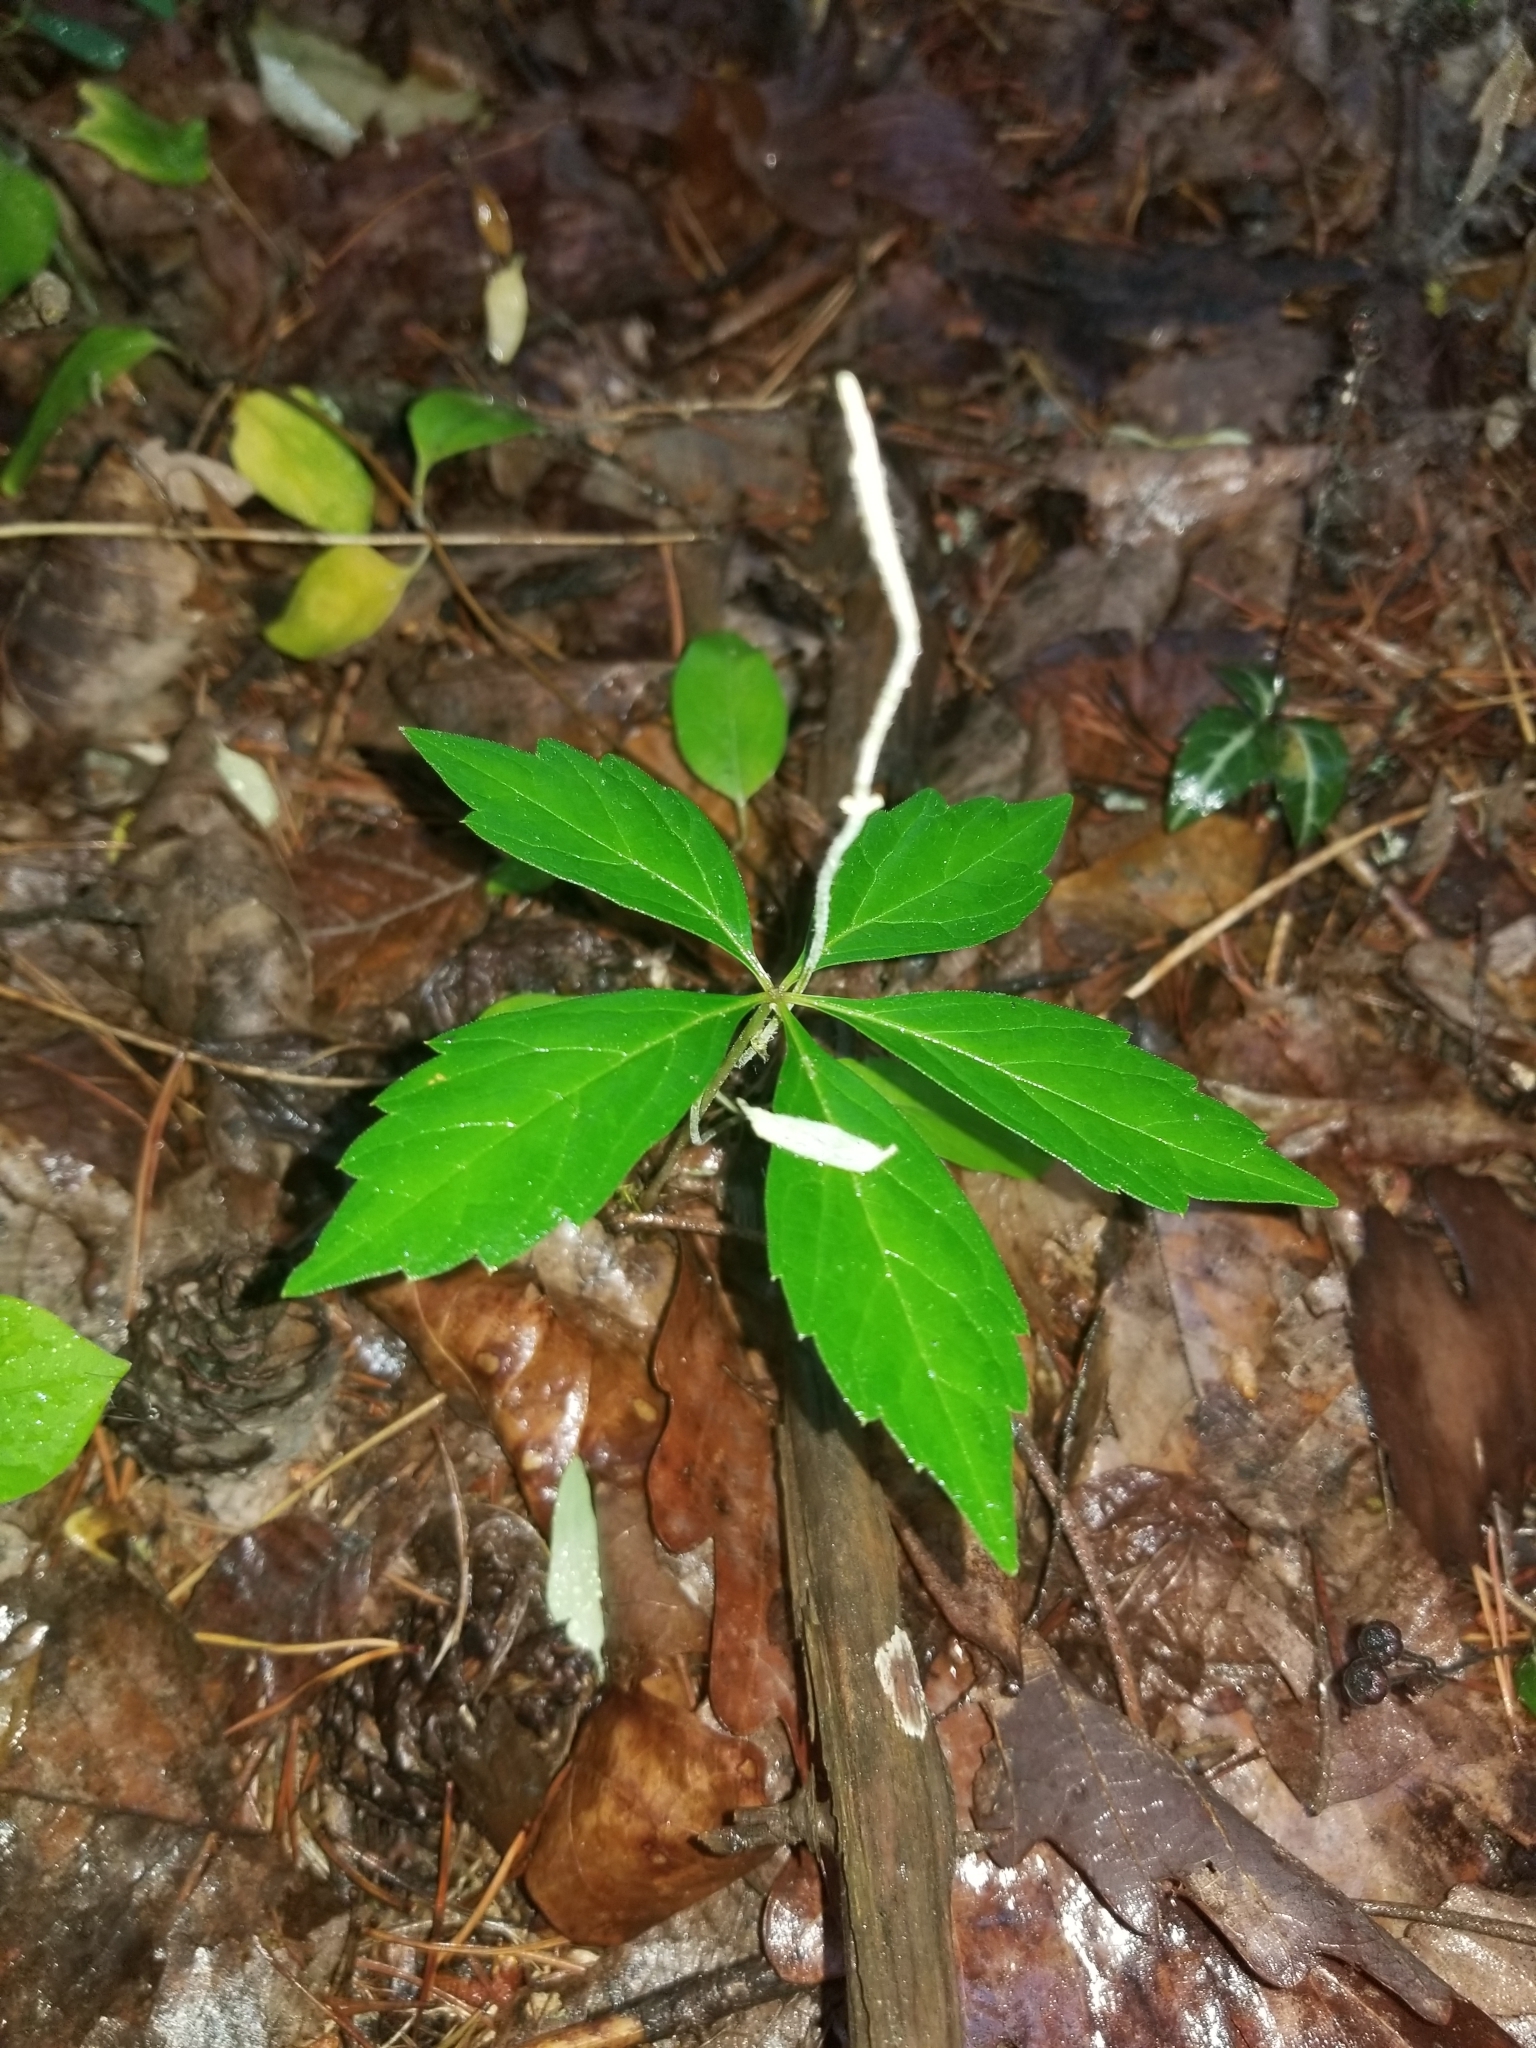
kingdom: Plantae
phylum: Tracheophyta
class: Magnoliopsida
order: Vitales
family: Vitaceae
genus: Parthenocissus
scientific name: Parthenocissus quinquefolia
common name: Virginia-creeper
